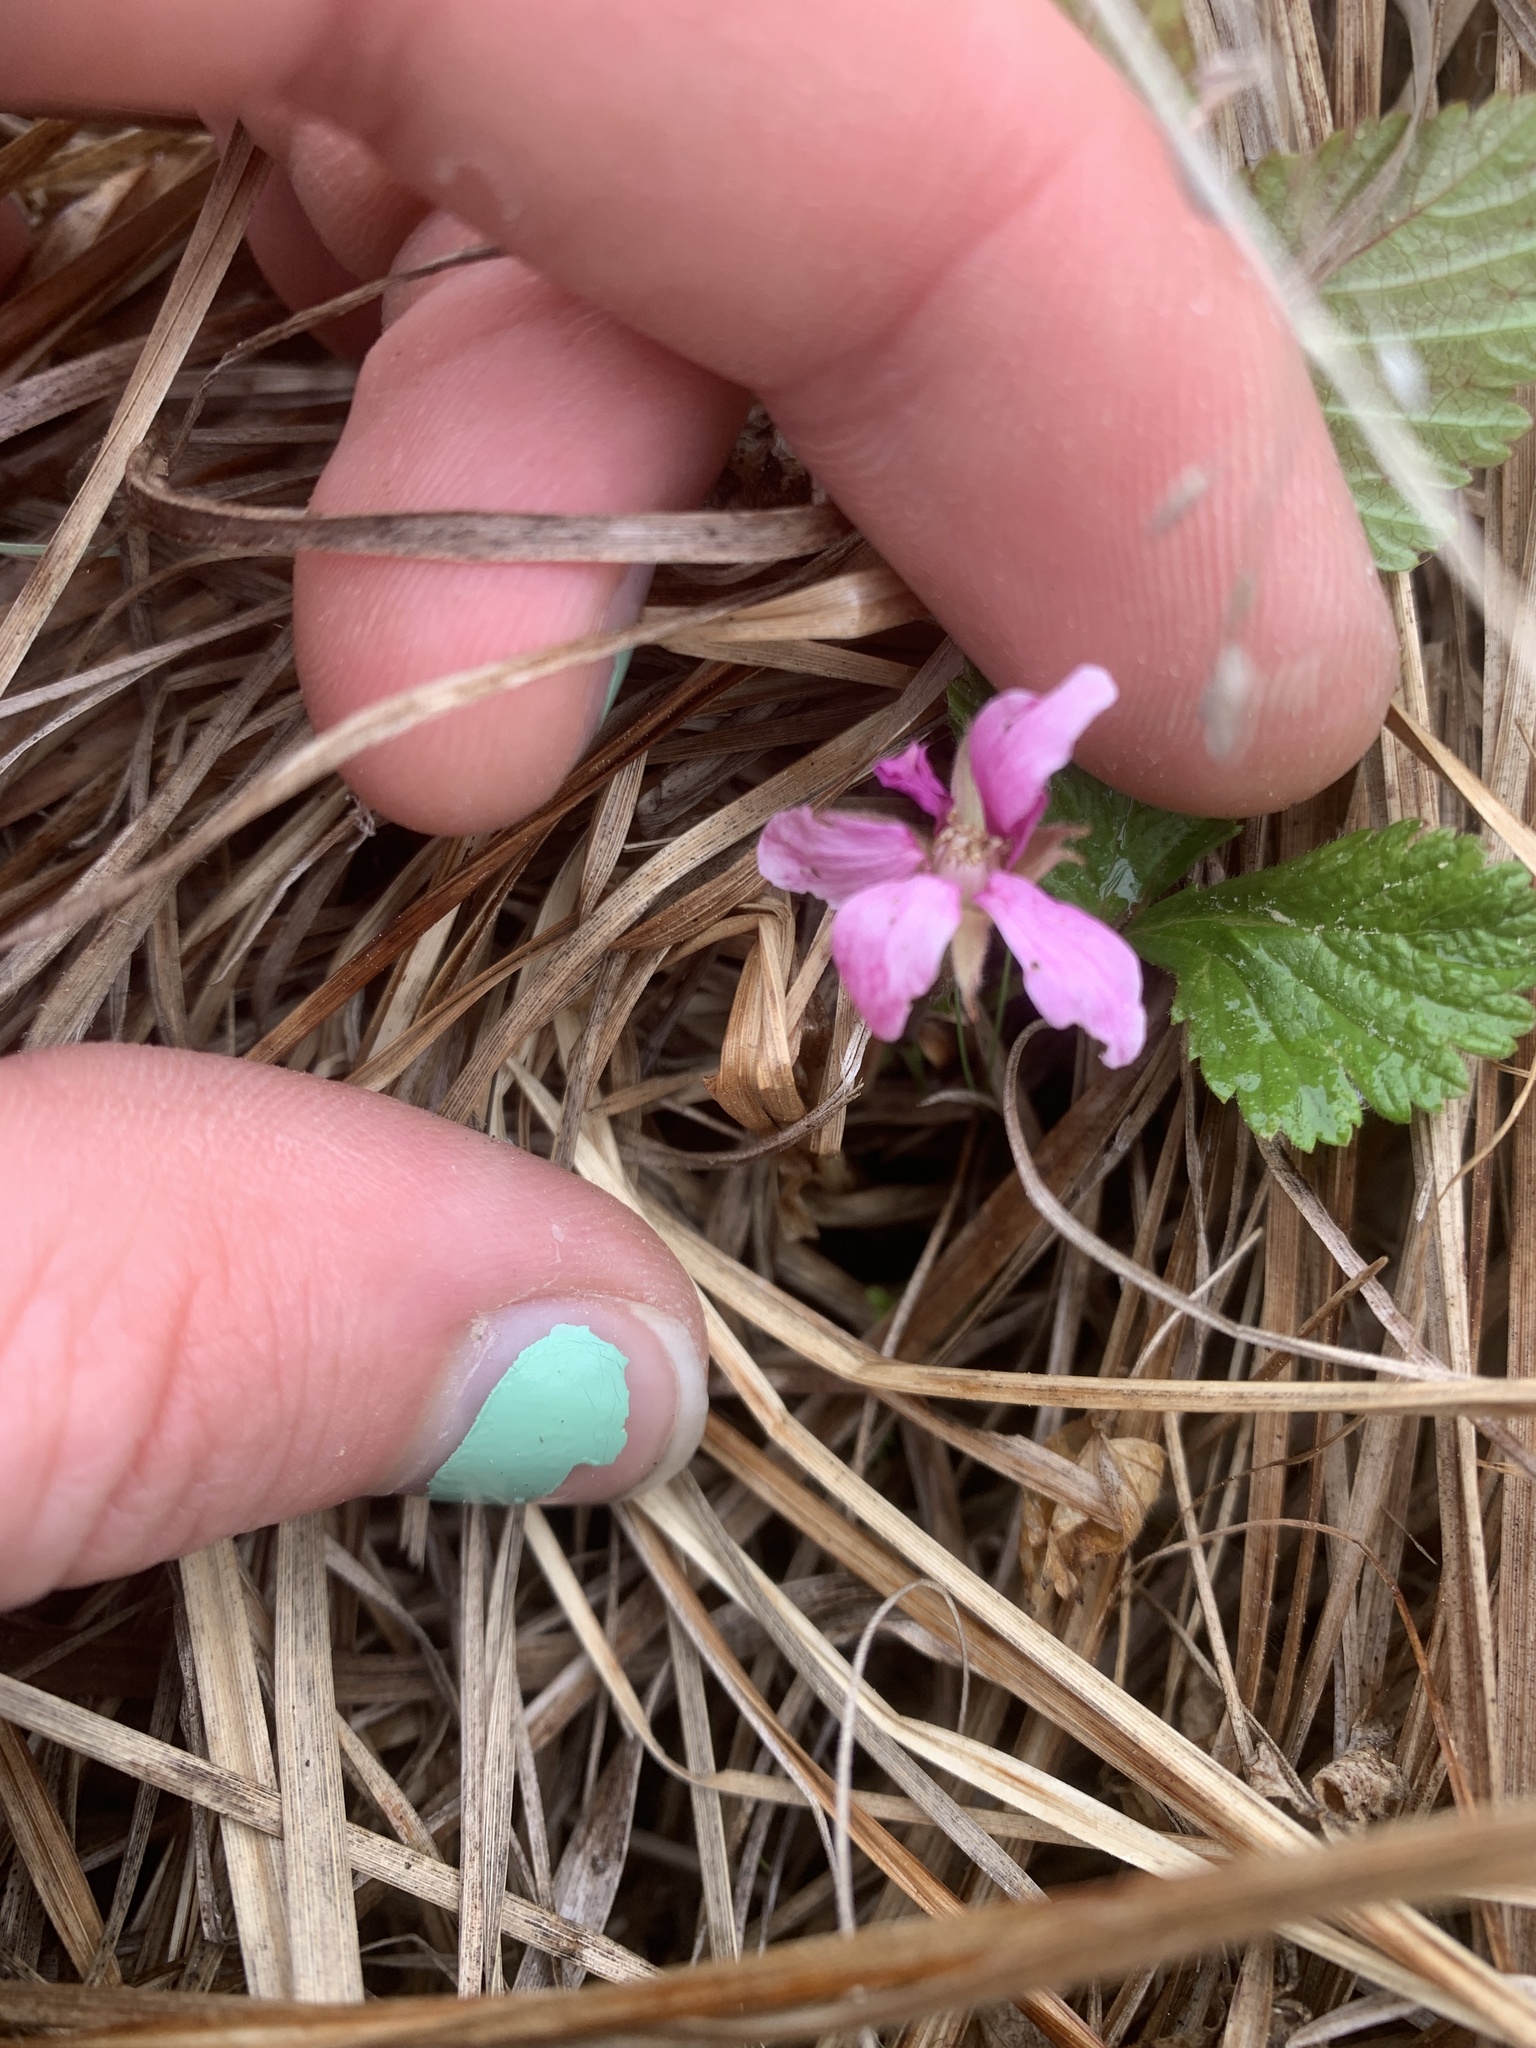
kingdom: Plantae
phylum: Tracheophyta
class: Magnoliopsida
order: Rosales
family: Rosaceae
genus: Rubus
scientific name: Rubus arcticus
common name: Arctic bramble
